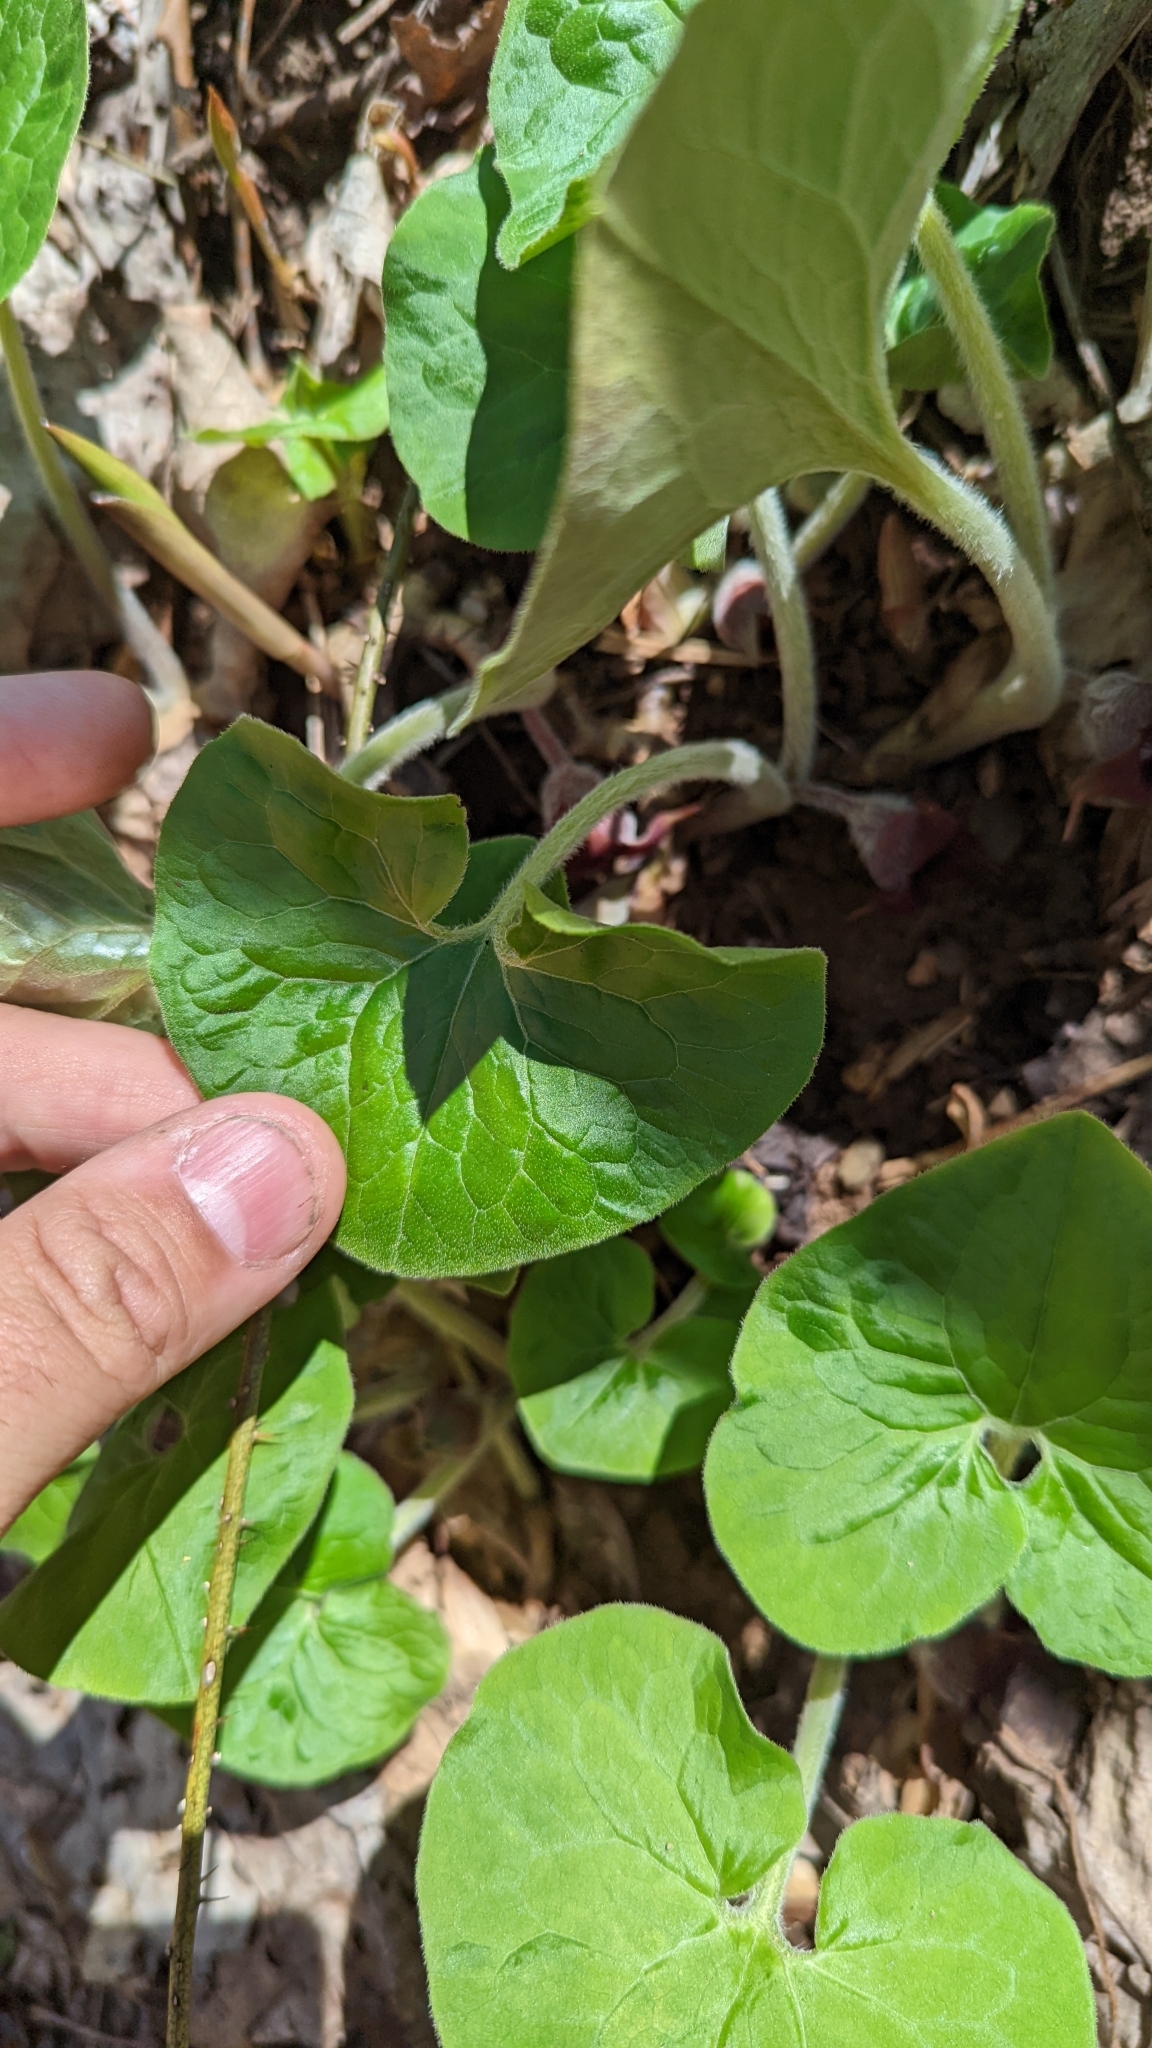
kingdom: Plantae
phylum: Tracheophyta
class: Magnoliopsida
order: Piperales
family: Aristolochiaceae
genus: Asarum
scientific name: Asarum canadense
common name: Wild ginger
